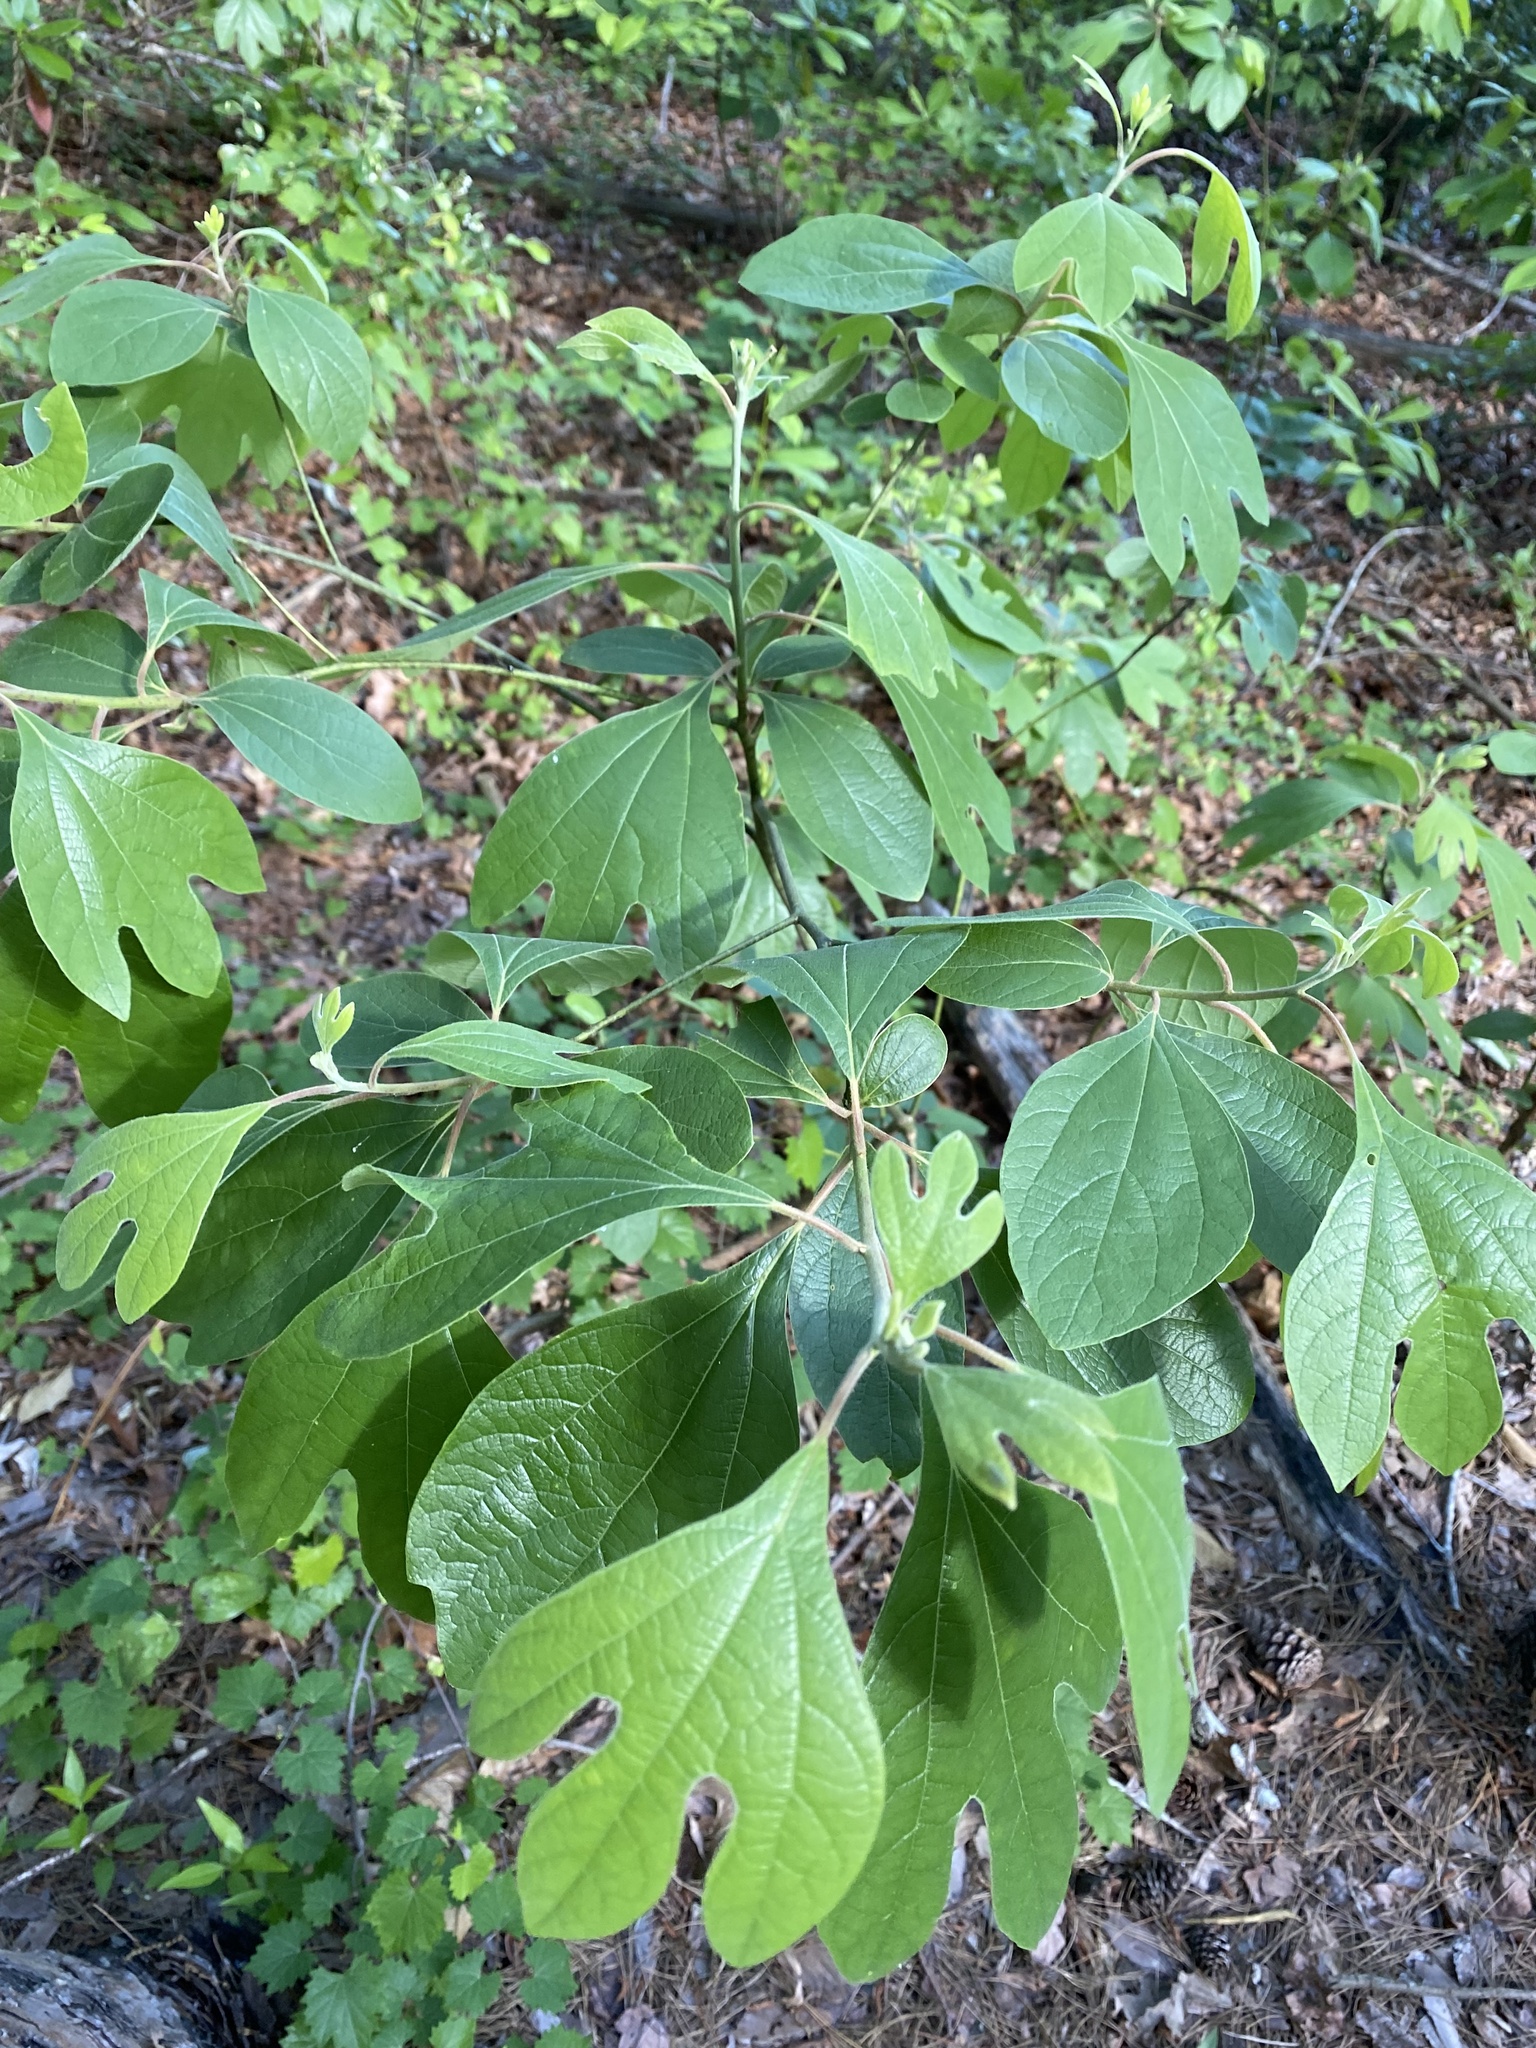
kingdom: Plantae
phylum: Tracheophyta
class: Magnoliopsida
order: Laurales
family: Lauraceae
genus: Sassafras
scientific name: Sassafras albidum
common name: Sassafras
